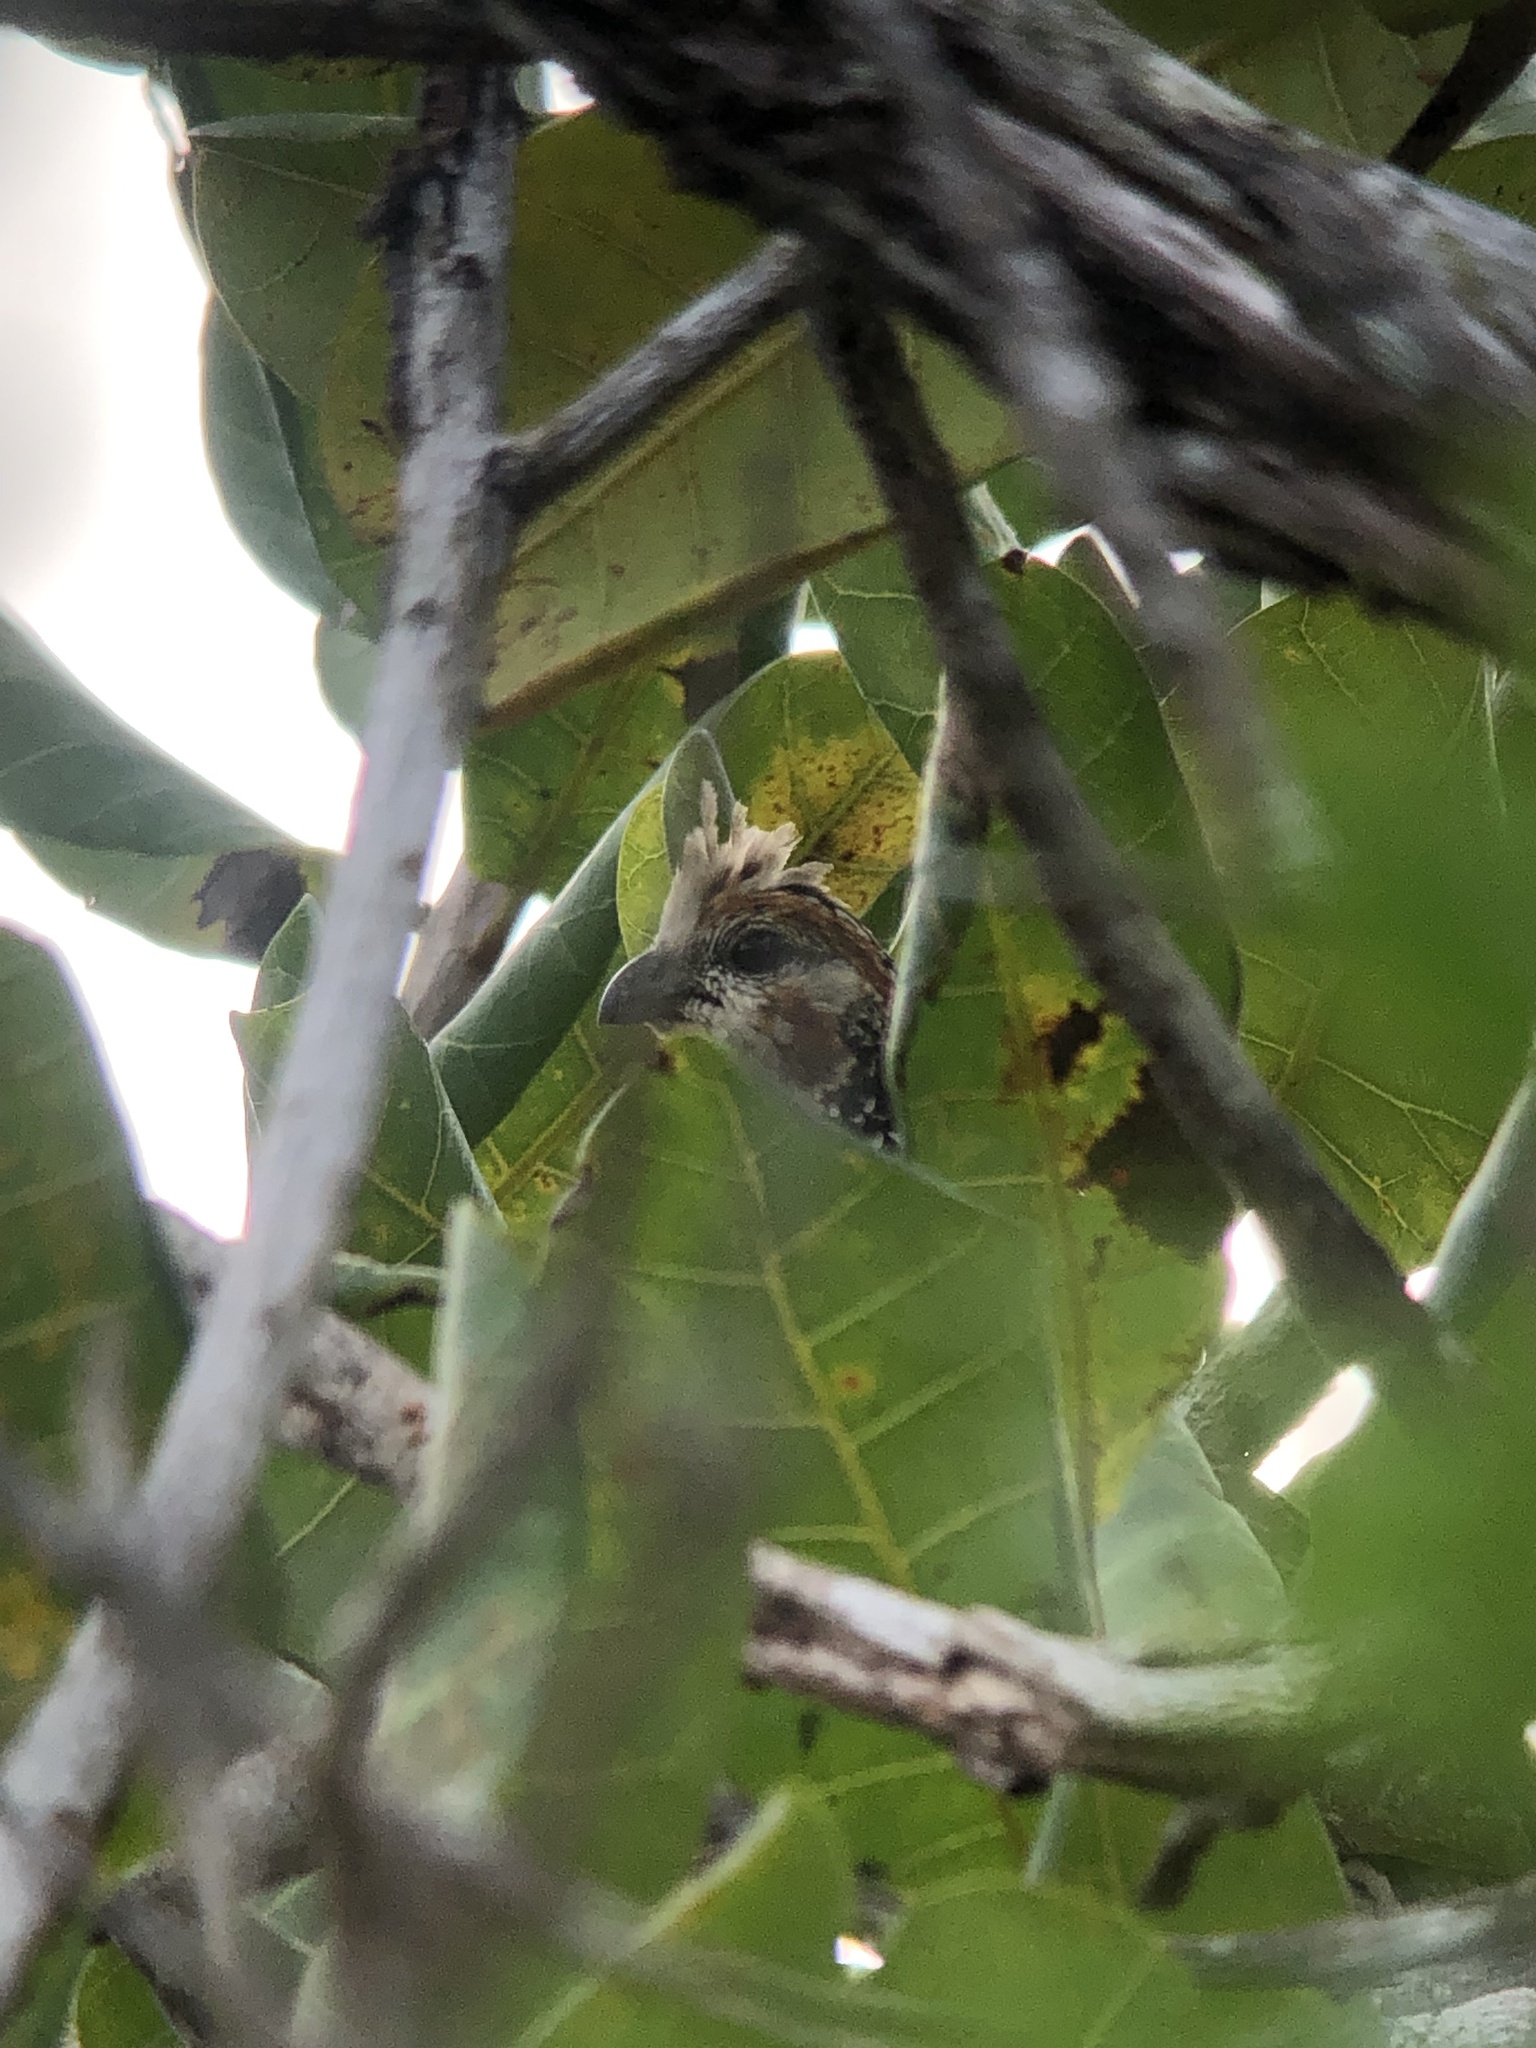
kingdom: Animalia
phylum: Chordata
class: Aves
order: Galliformes
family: Odontophoridae
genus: Colinus
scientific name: Colinus cristatus
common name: Crested bobwhite
